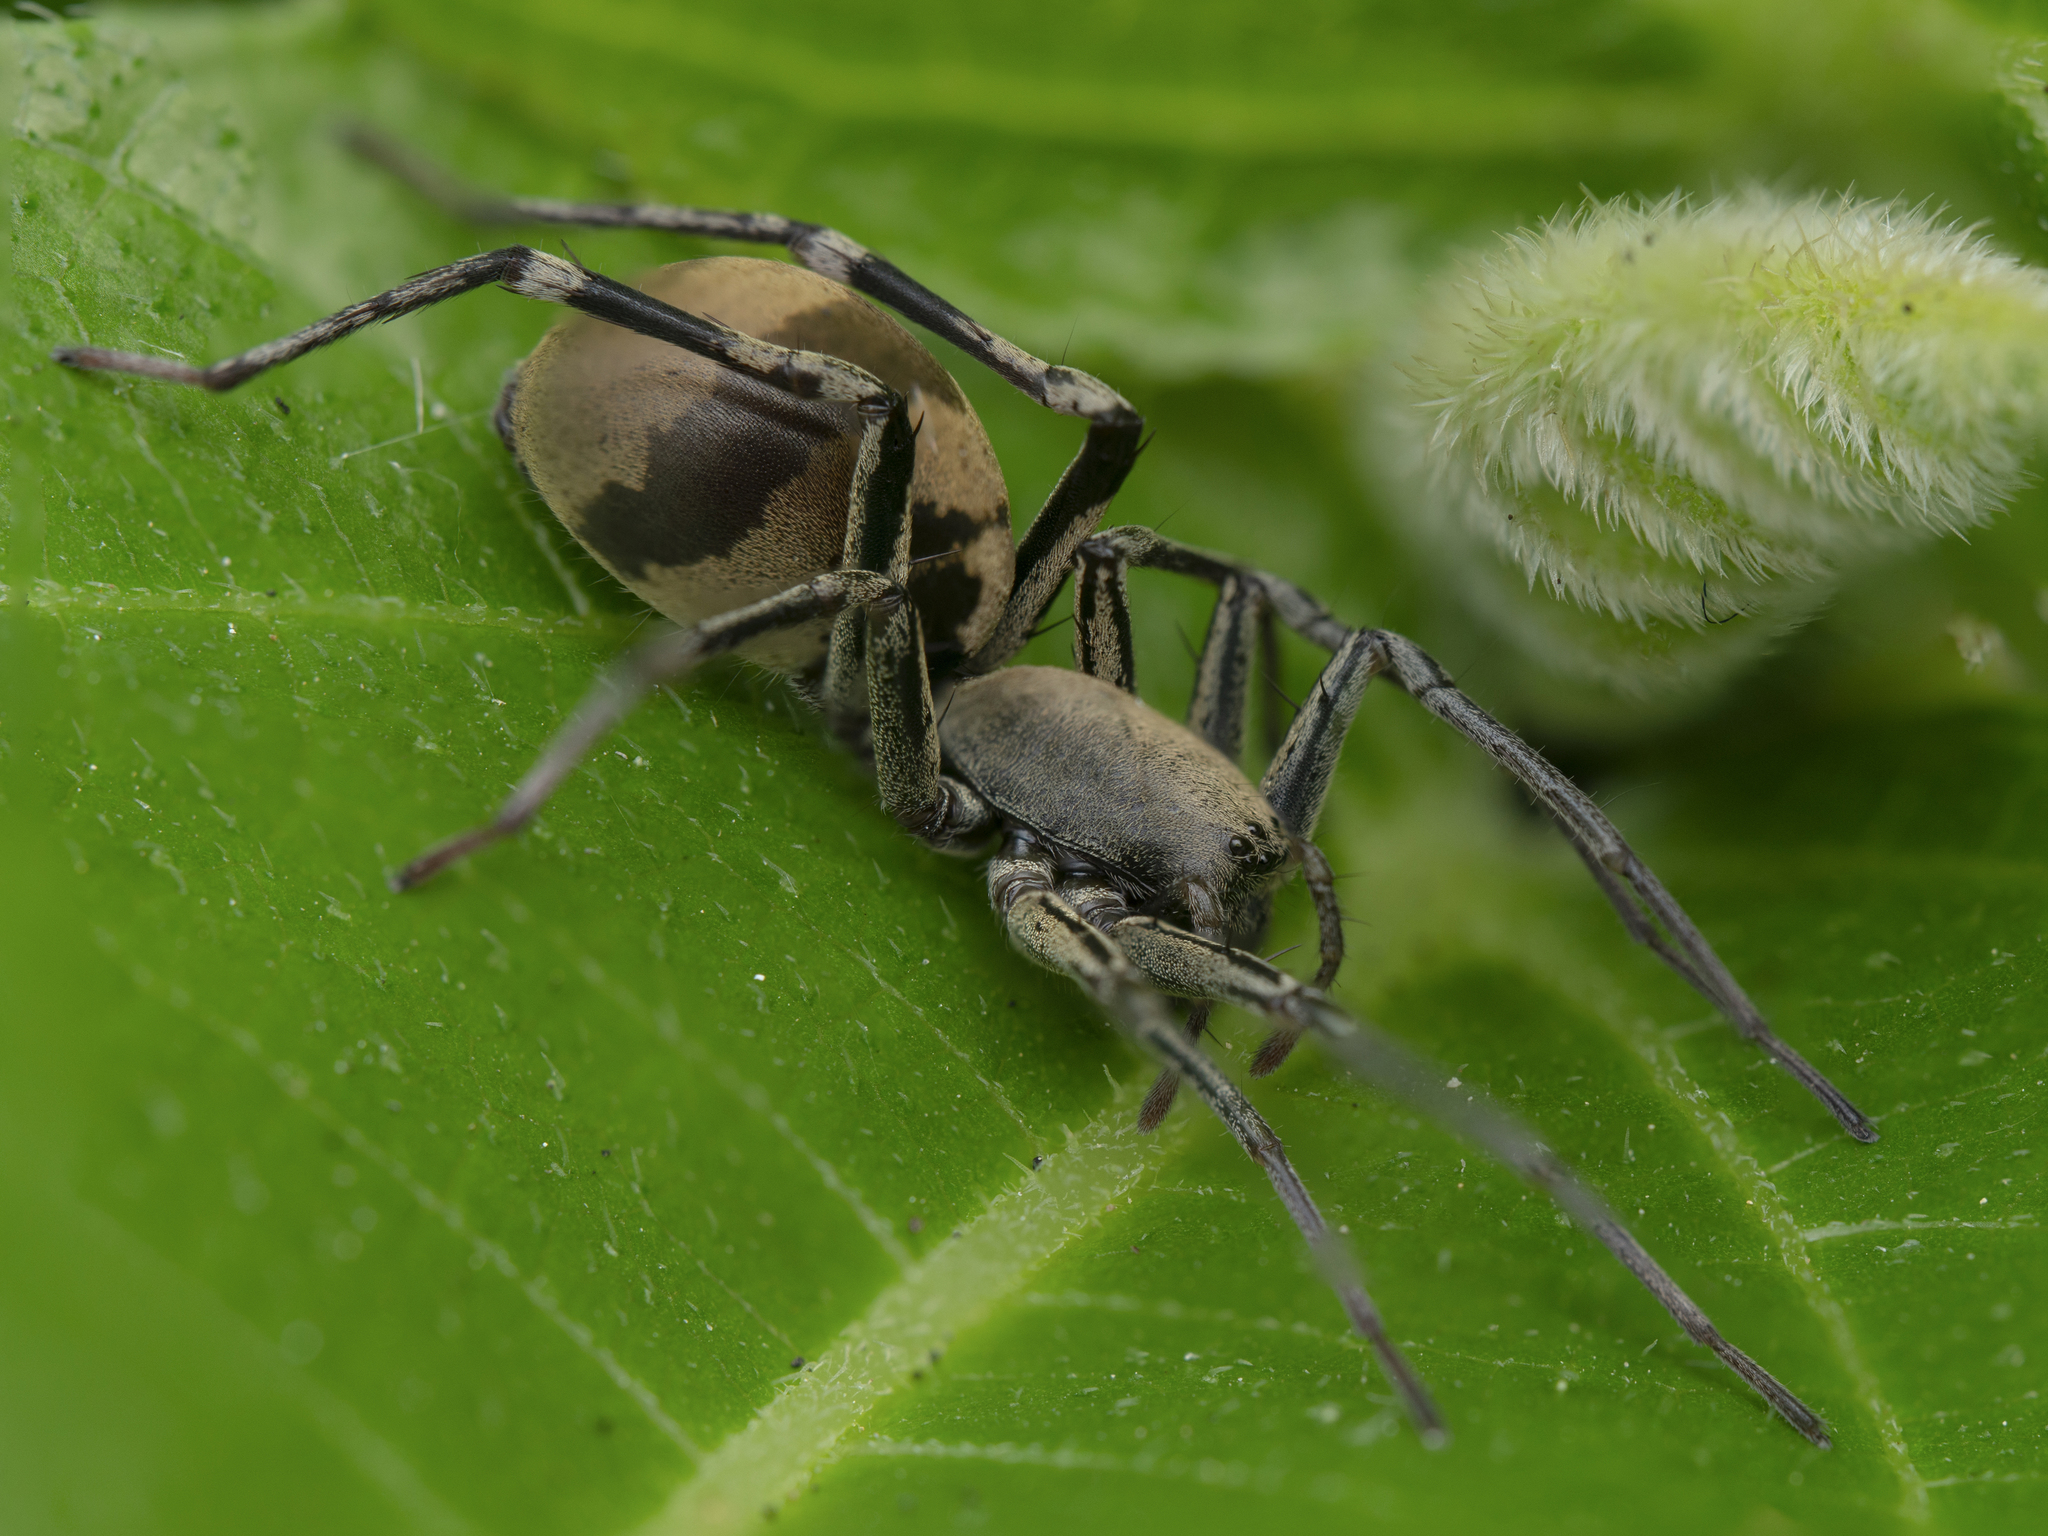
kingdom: Animalia
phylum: Arthropoda
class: Arachnida
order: Araneae
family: Corinnidae
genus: Corinnomma
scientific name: Corinnomma severum
